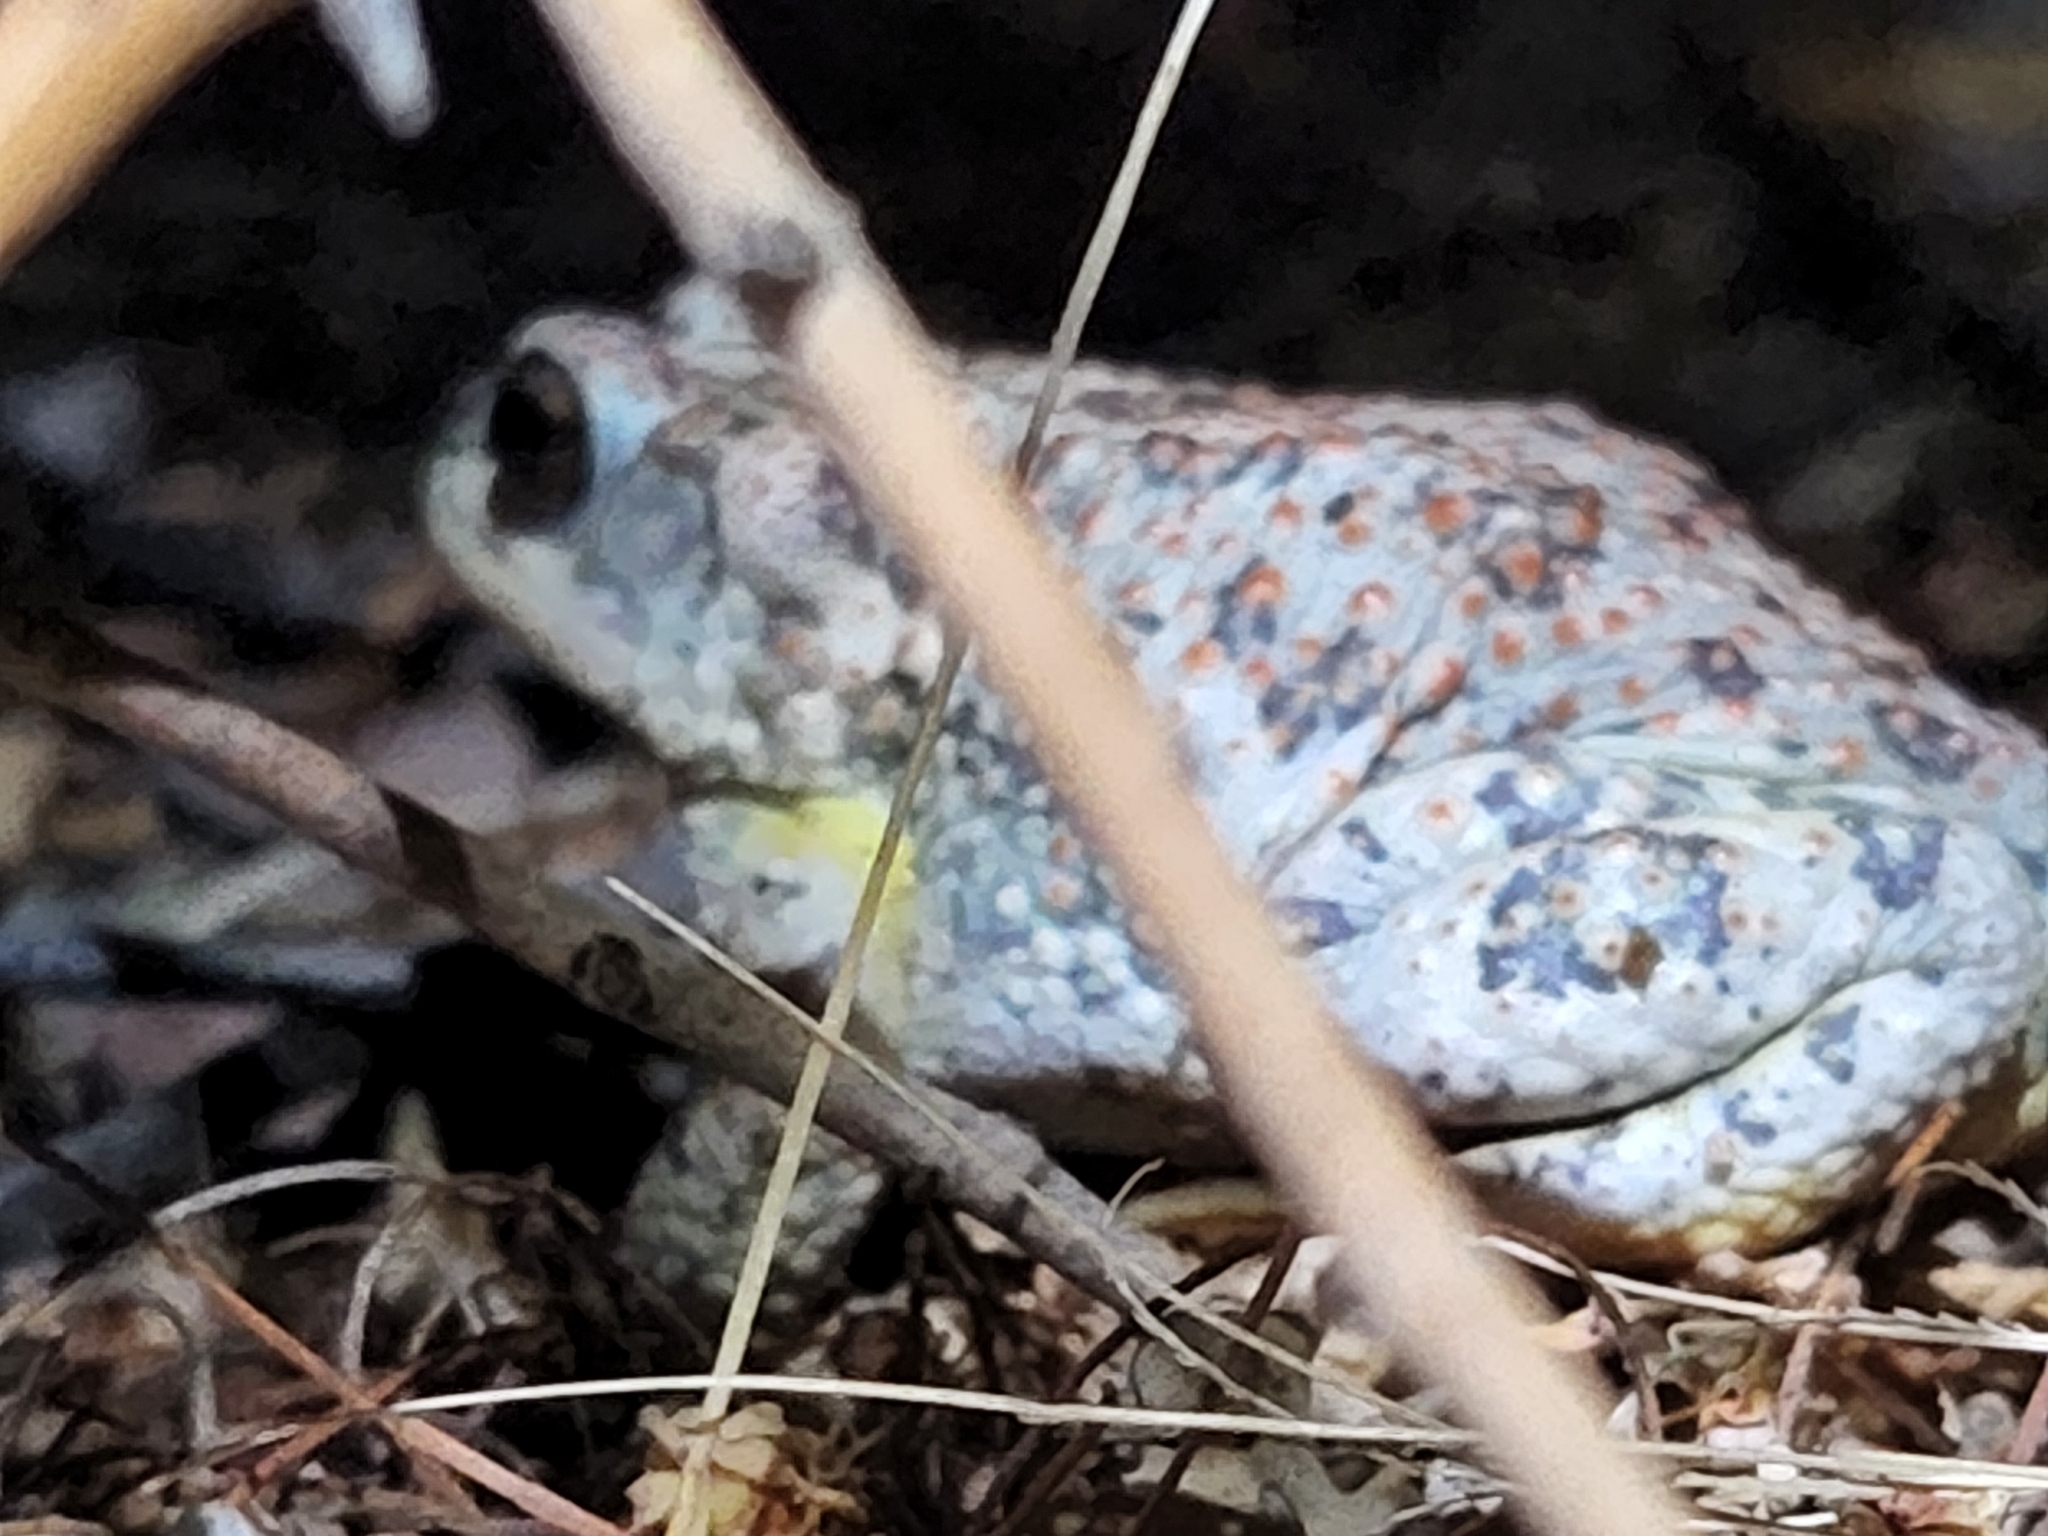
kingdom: Animalia
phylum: Chordata
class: Amphibia
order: Anura
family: Bufonidae
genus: Anaxyrus
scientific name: Anaxyrus punctatus
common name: Red-spotted toad
